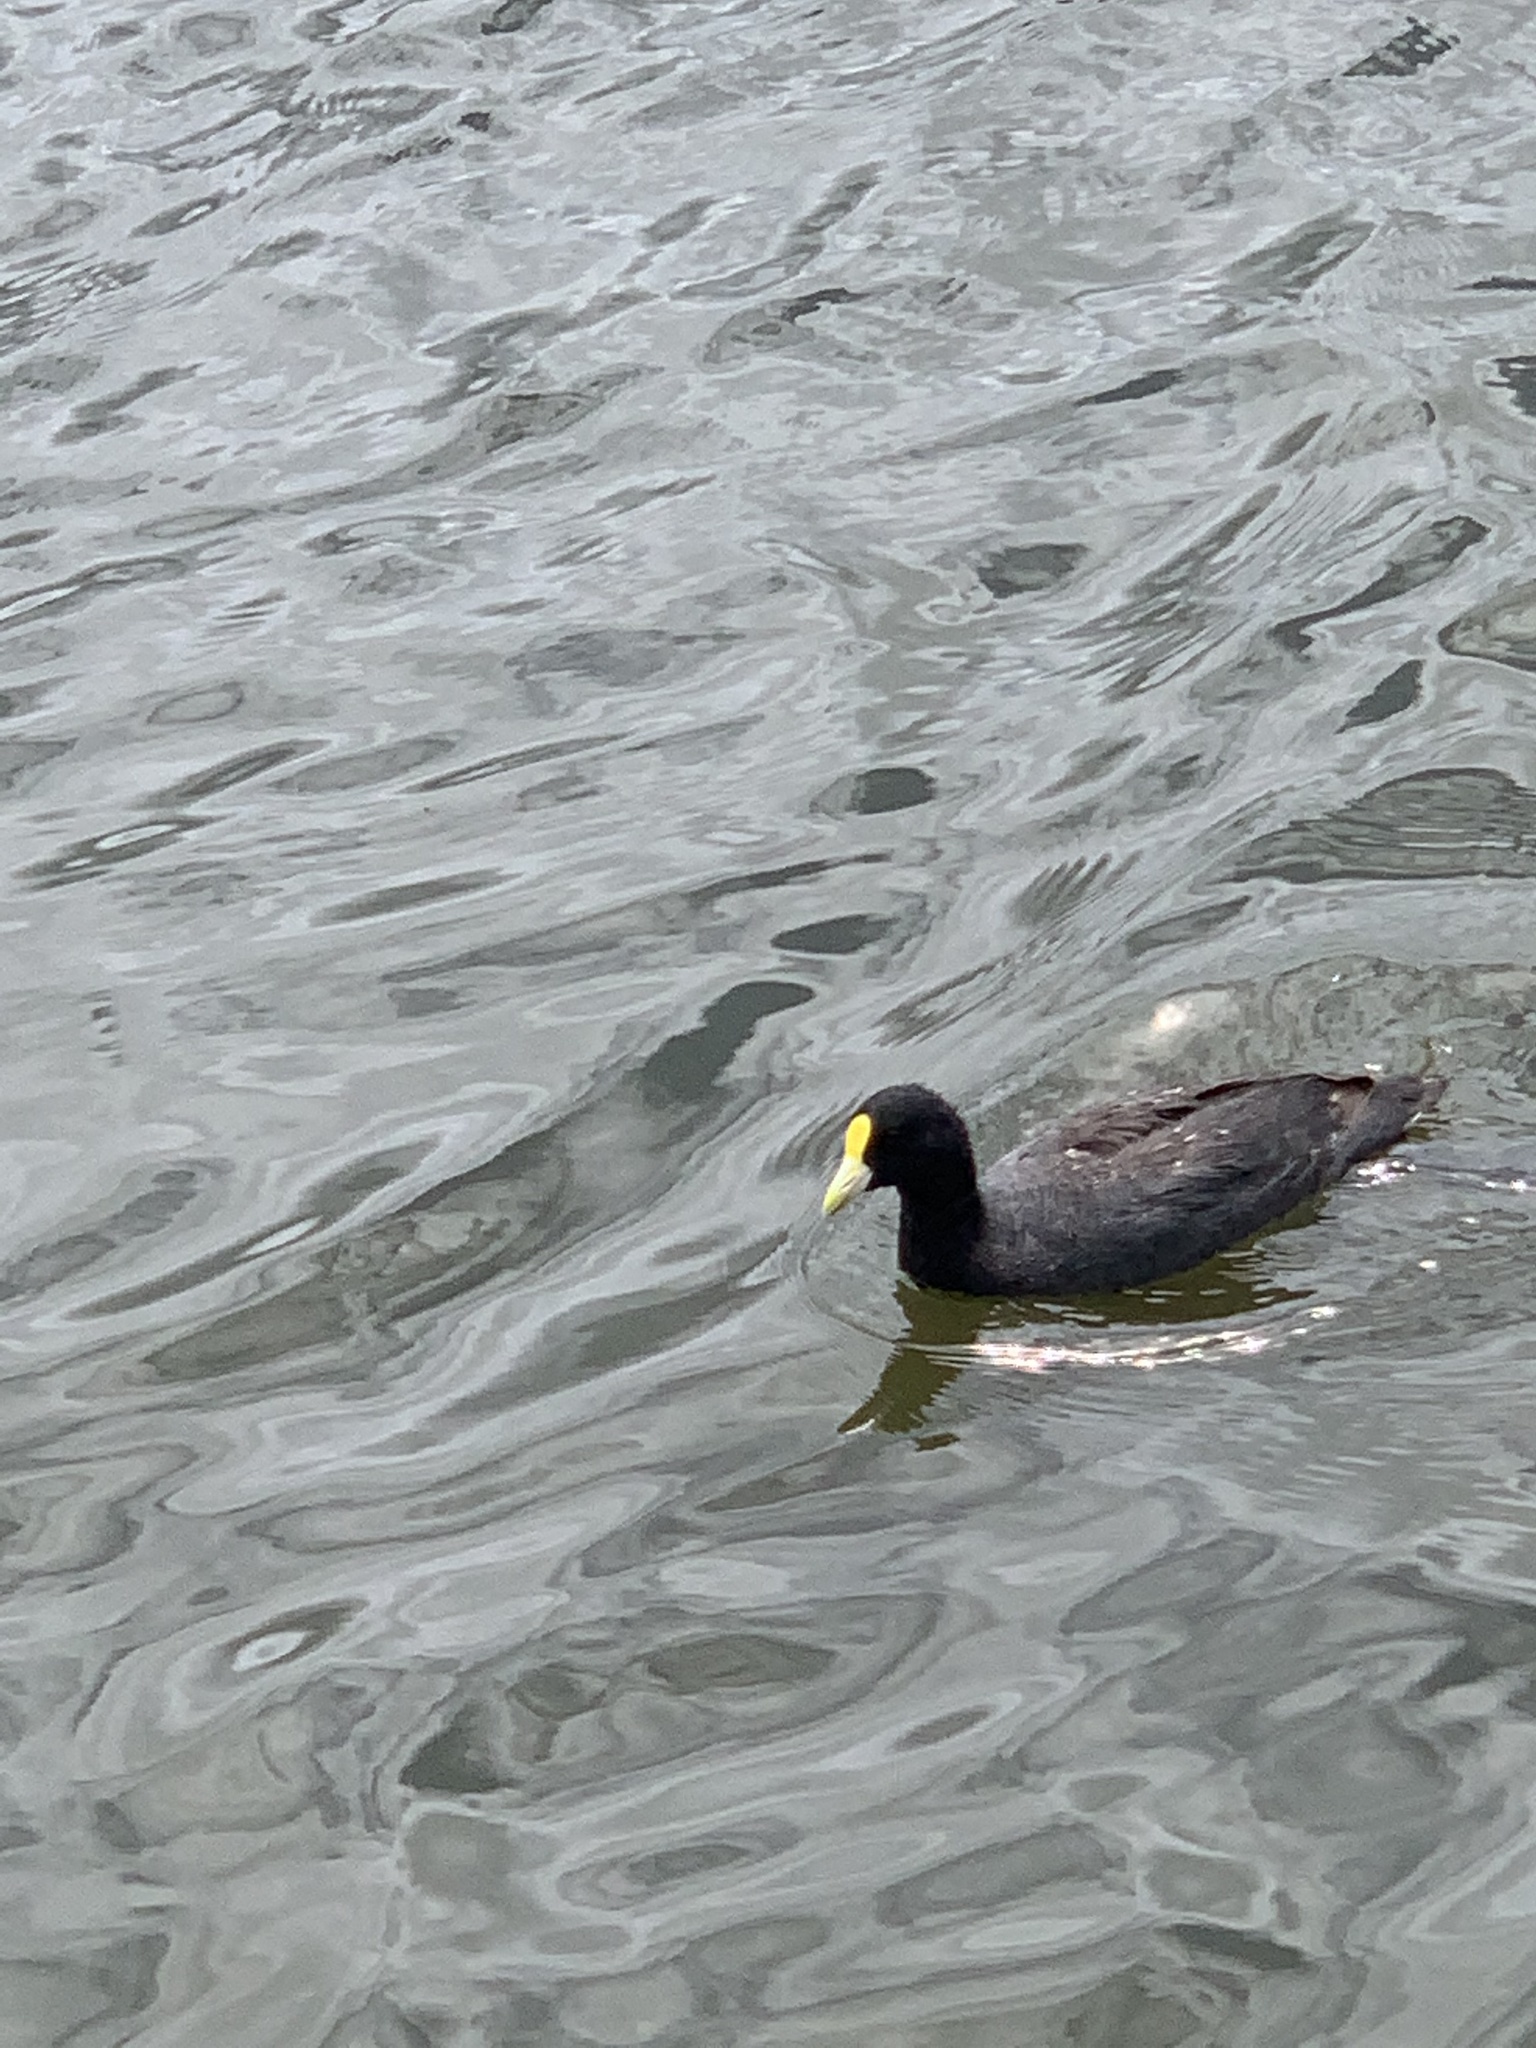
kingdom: Animalia
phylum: Chordata
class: Aves
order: Gruiformes
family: Rallidae
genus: Fulica
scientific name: Fulica leucoptera
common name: White-winged coot
